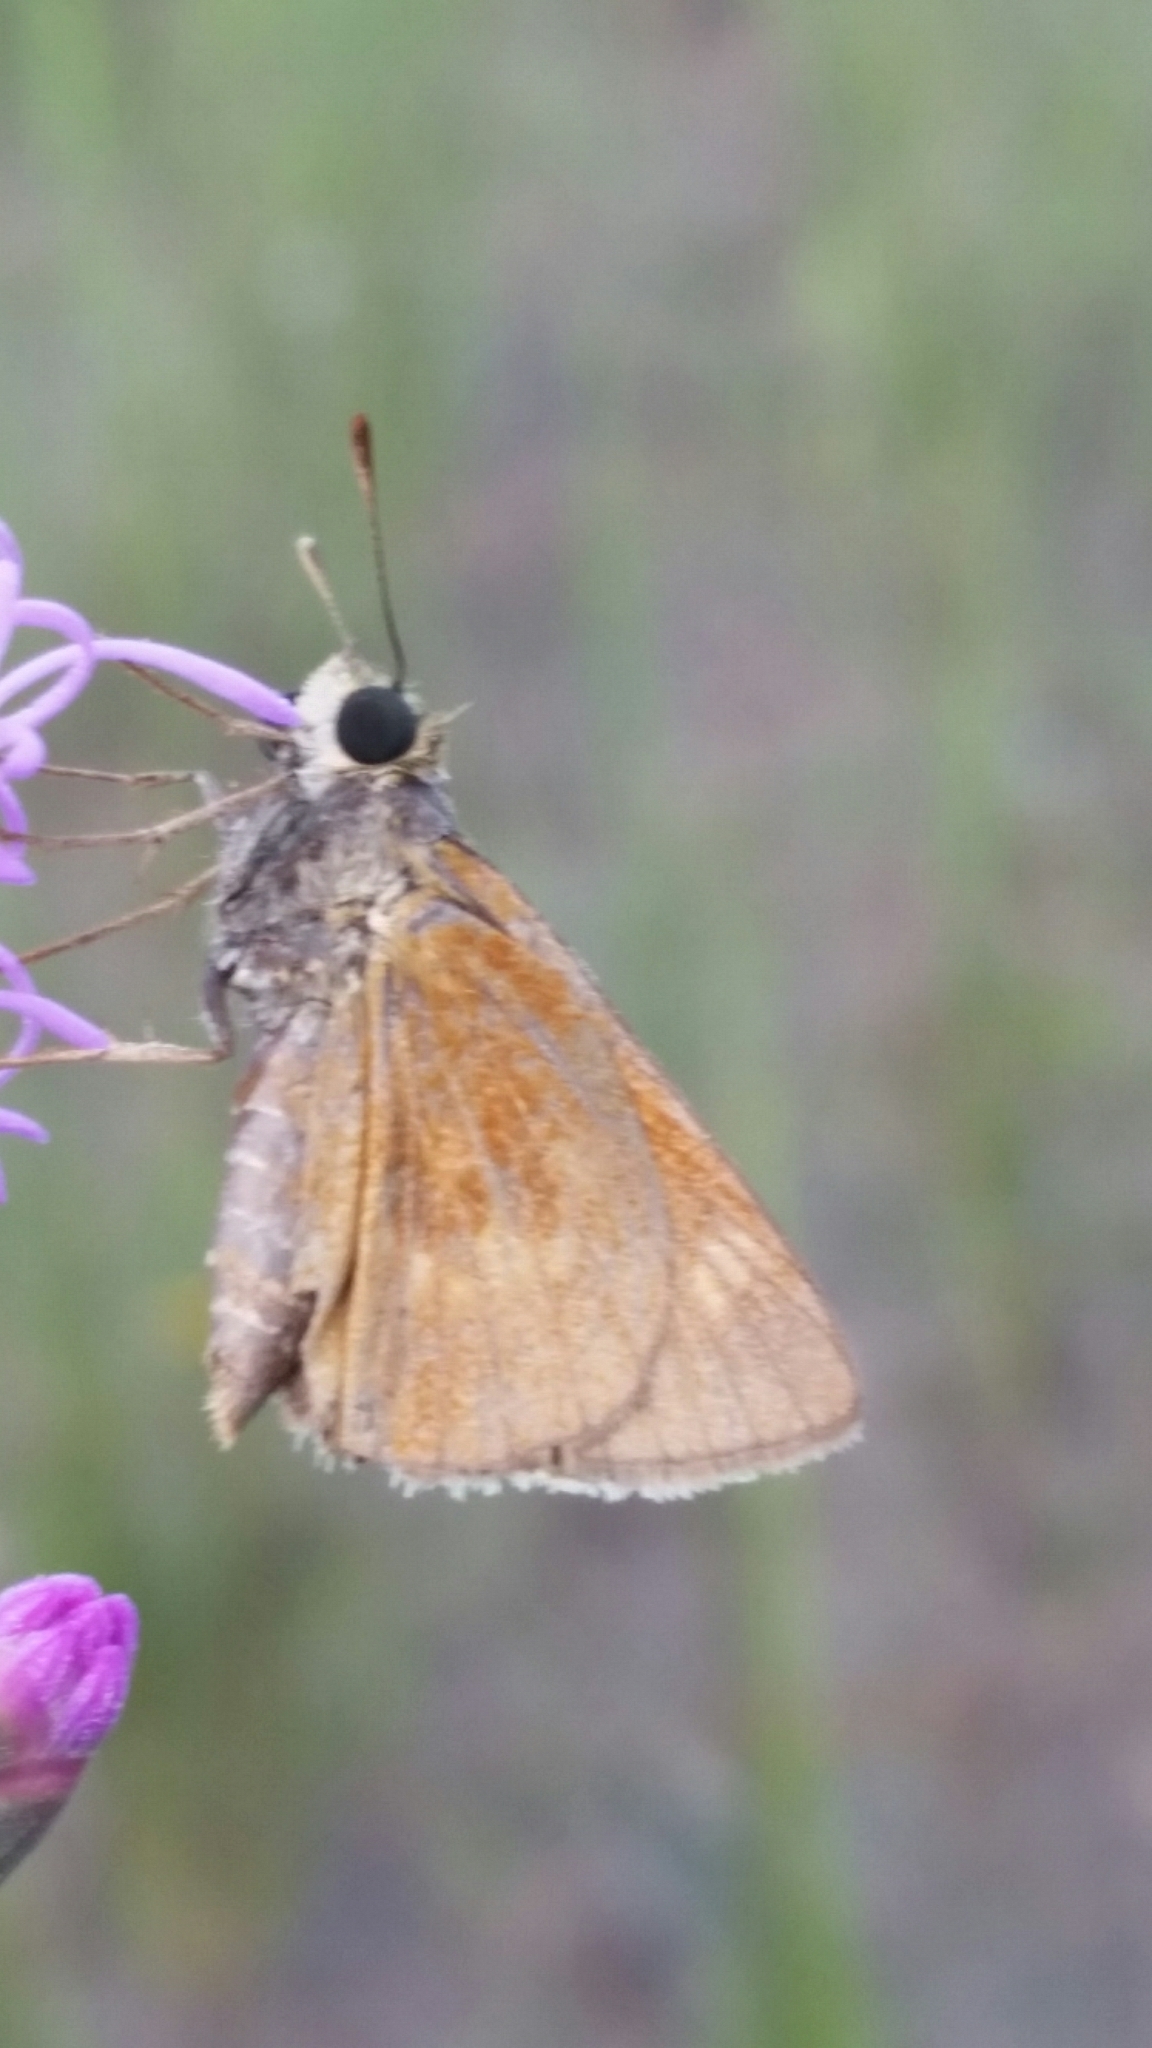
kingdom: Animalia
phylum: Arthropoda
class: Insecta
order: Lepidoptera
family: Hesperiidae
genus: Polites
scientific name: Polites otho
